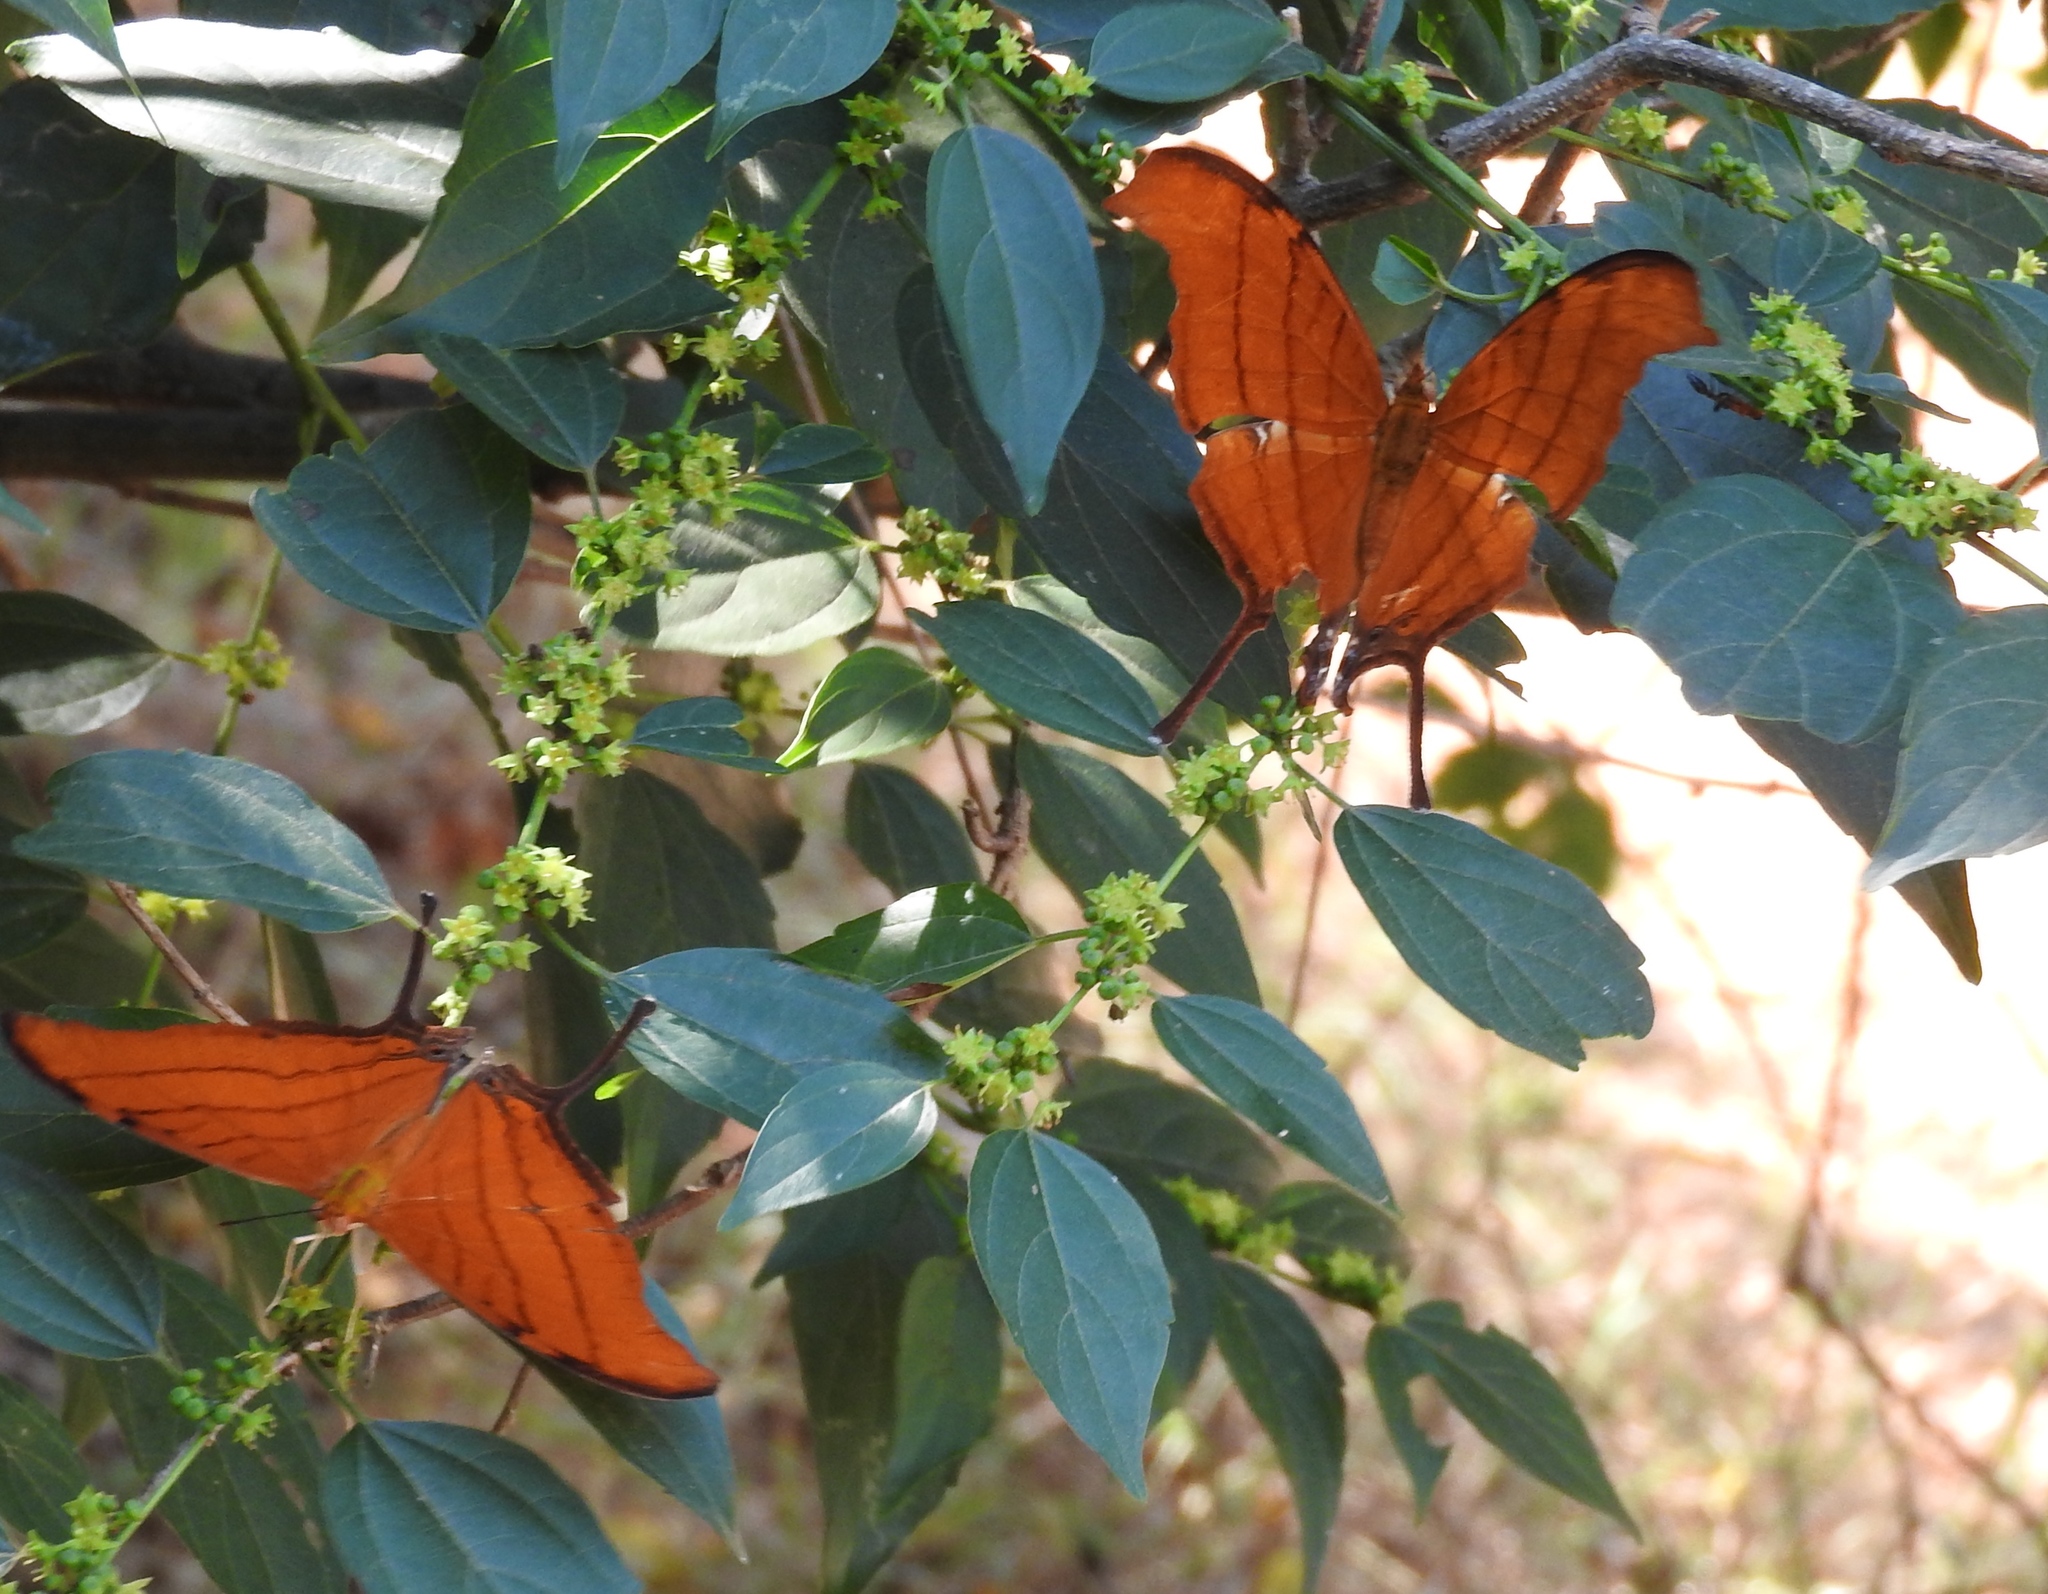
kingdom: Animalia
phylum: Arthropoda
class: Insecta
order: Lepidoptera
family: Nymphalidae
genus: Marpesia
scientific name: Marpesia petreus
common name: Red dagger wing
